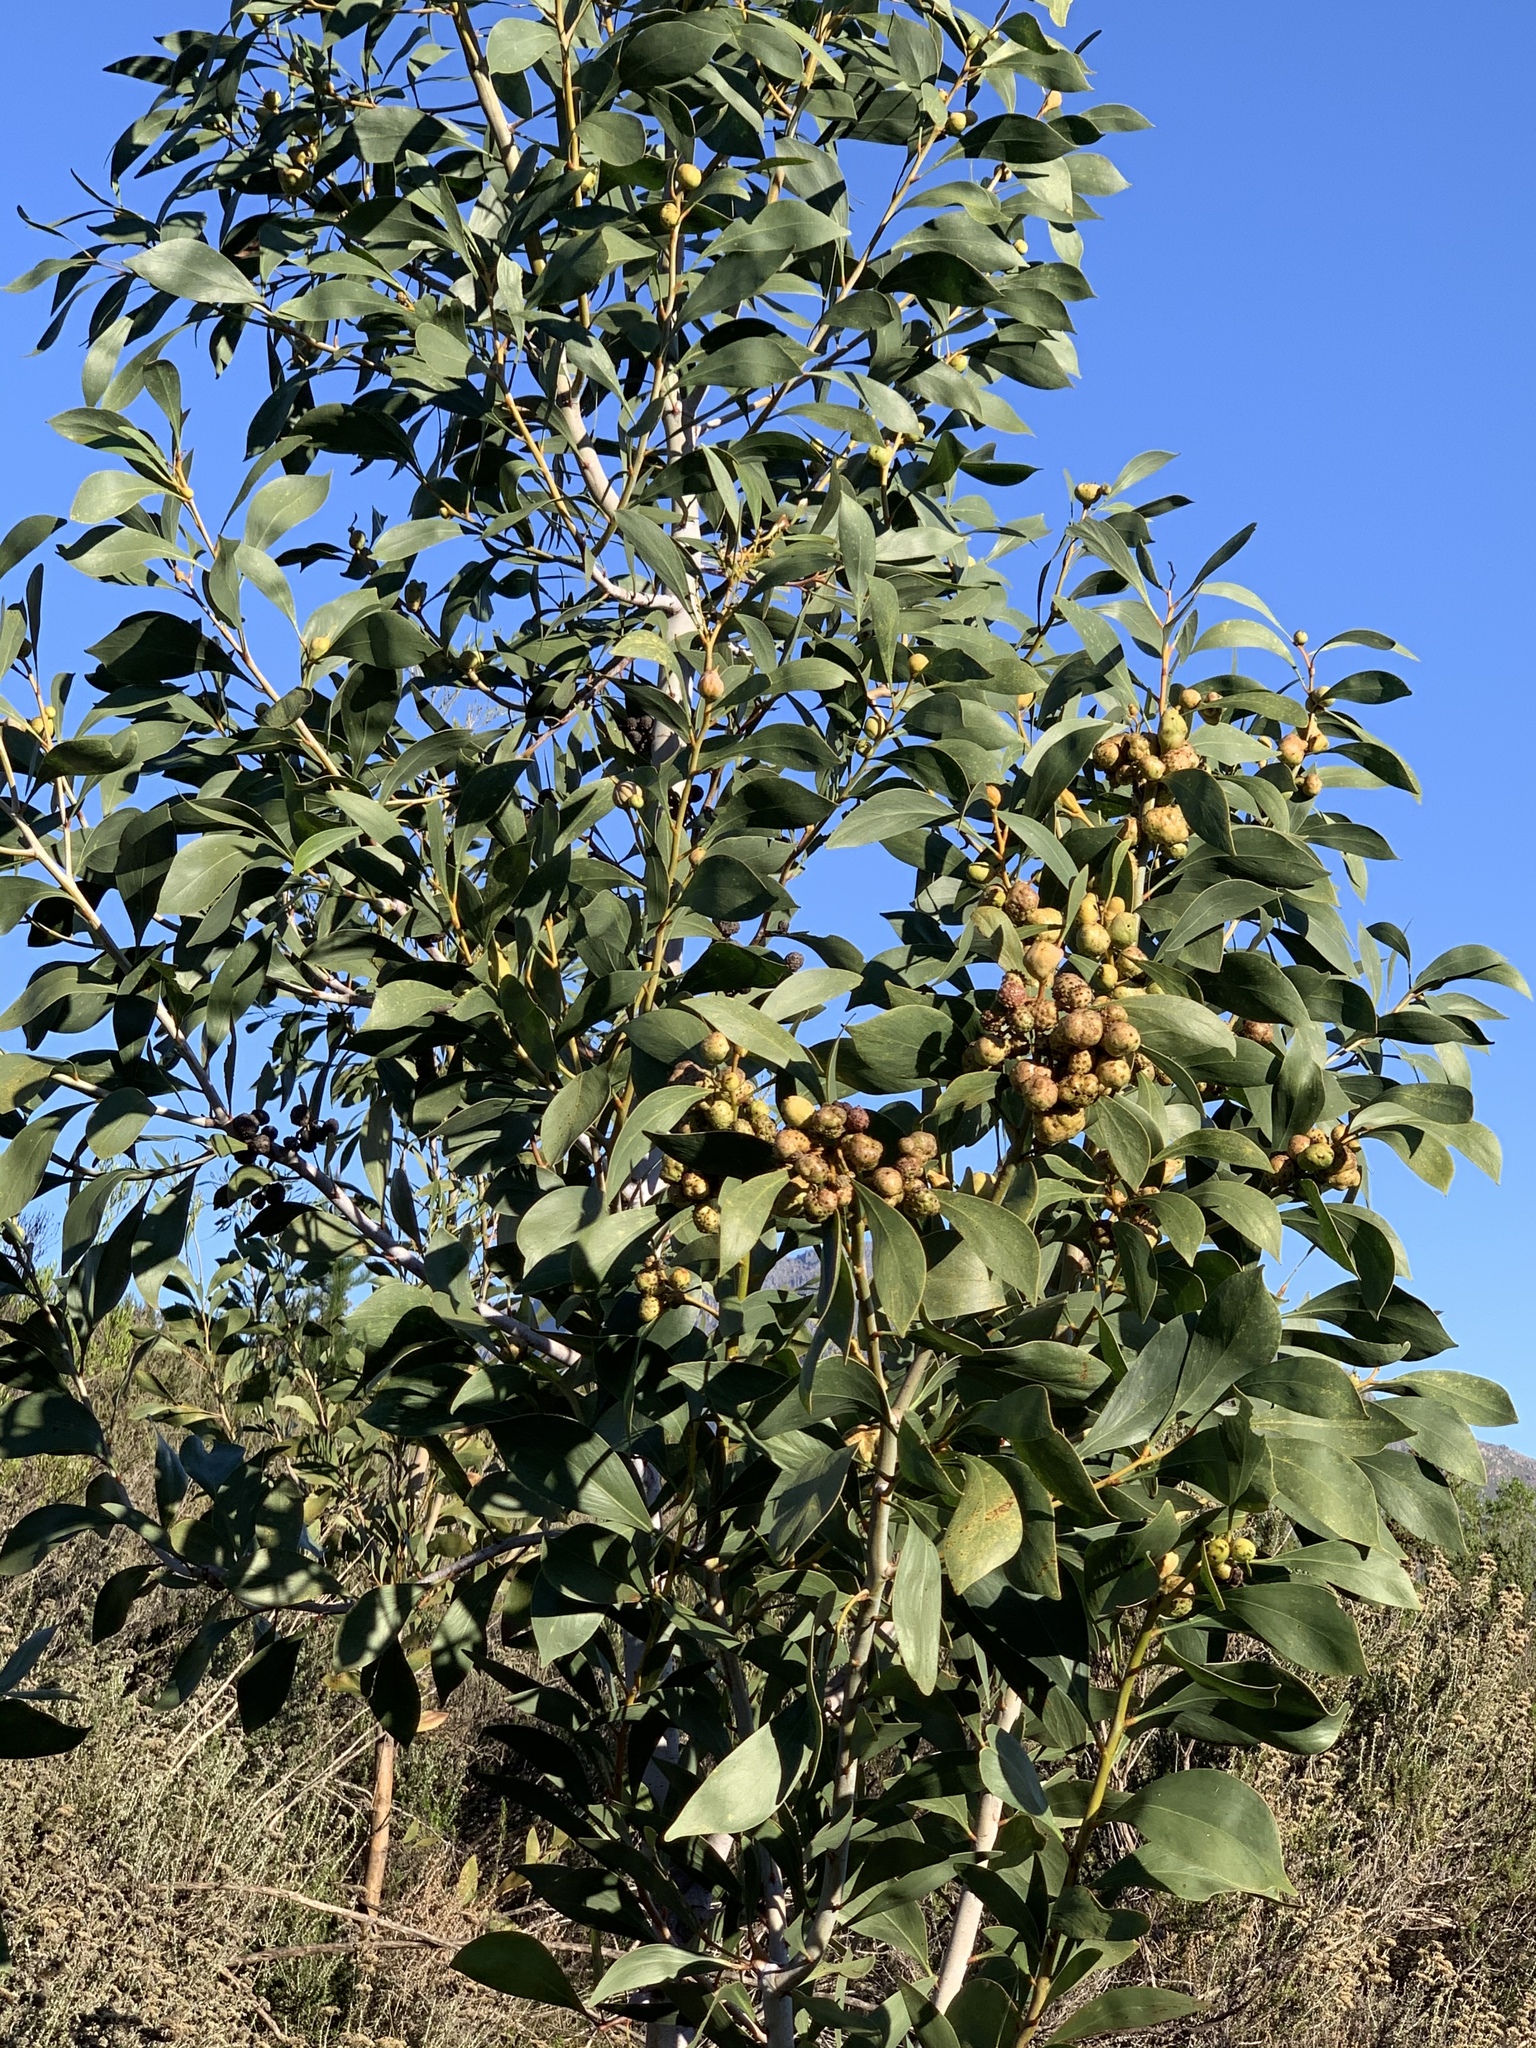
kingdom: Plantae
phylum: Tracheophyta
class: Magnoliopsida
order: Fabales
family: Fabaceae
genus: Acacia
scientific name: Acacia pycnantha
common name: Golden wattle
